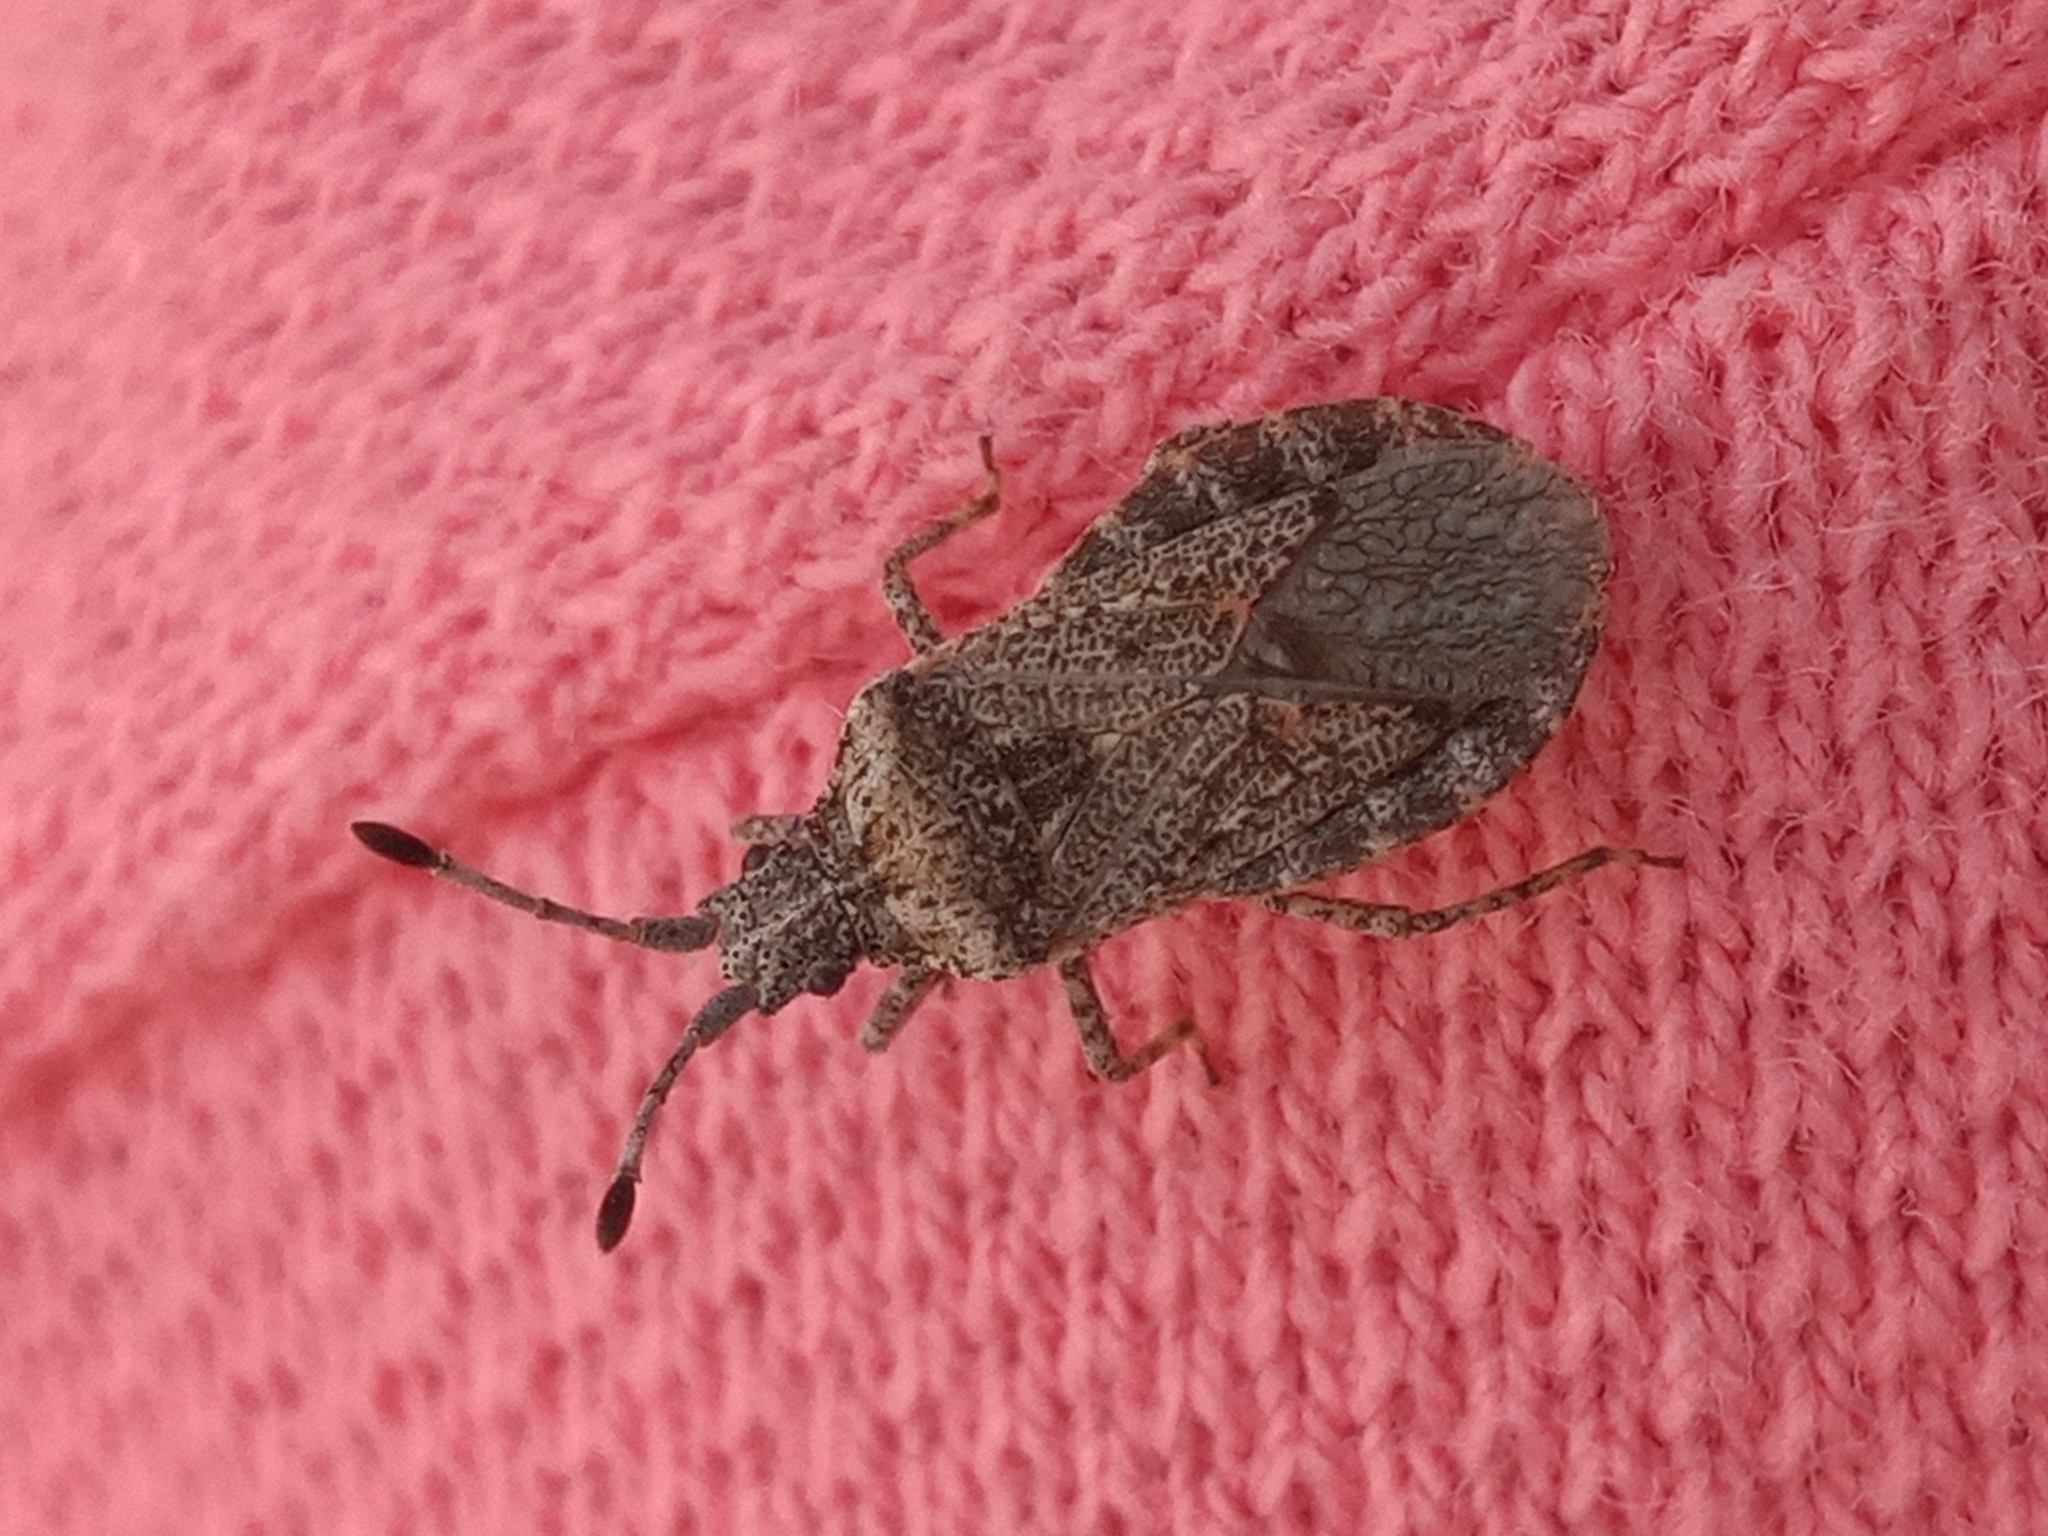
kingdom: Animalia
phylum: Arthropoda
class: Insecta
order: Hemiptera
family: Coreidae
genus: Scolopocerus
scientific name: Scolopocerus uhleri
